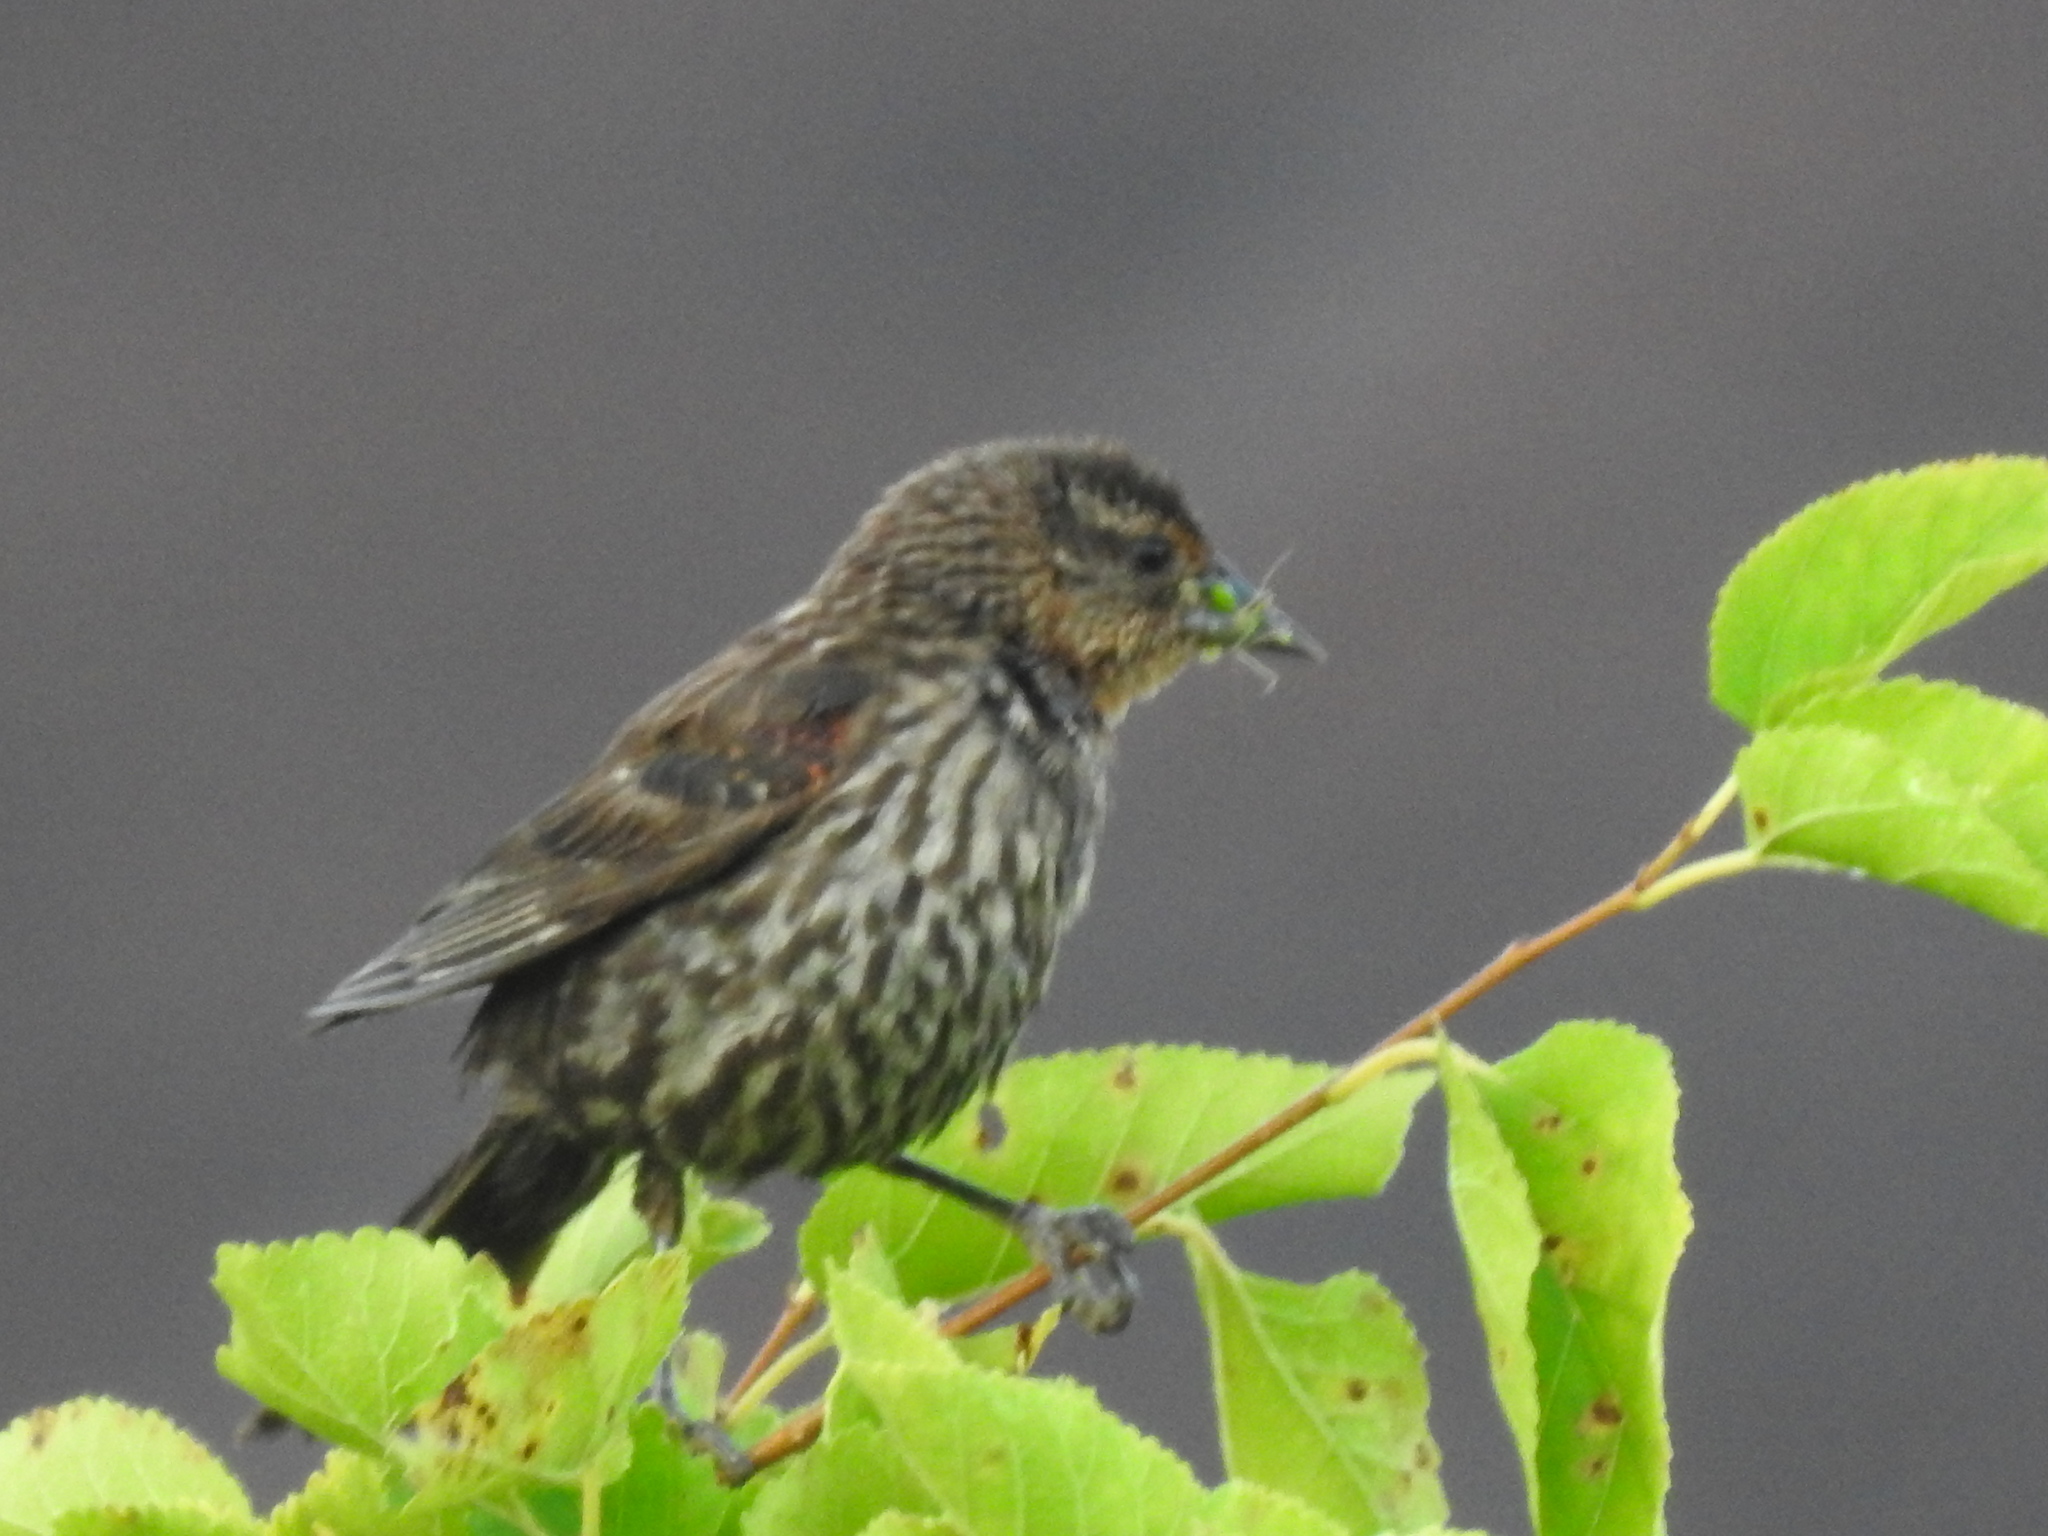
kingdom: Animalia
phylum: Chordata
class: Aves
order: Passeriformes
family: Icteridae
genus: Agelaius
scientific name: Agelaius phoeniceus
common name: Red-winged blackbird
